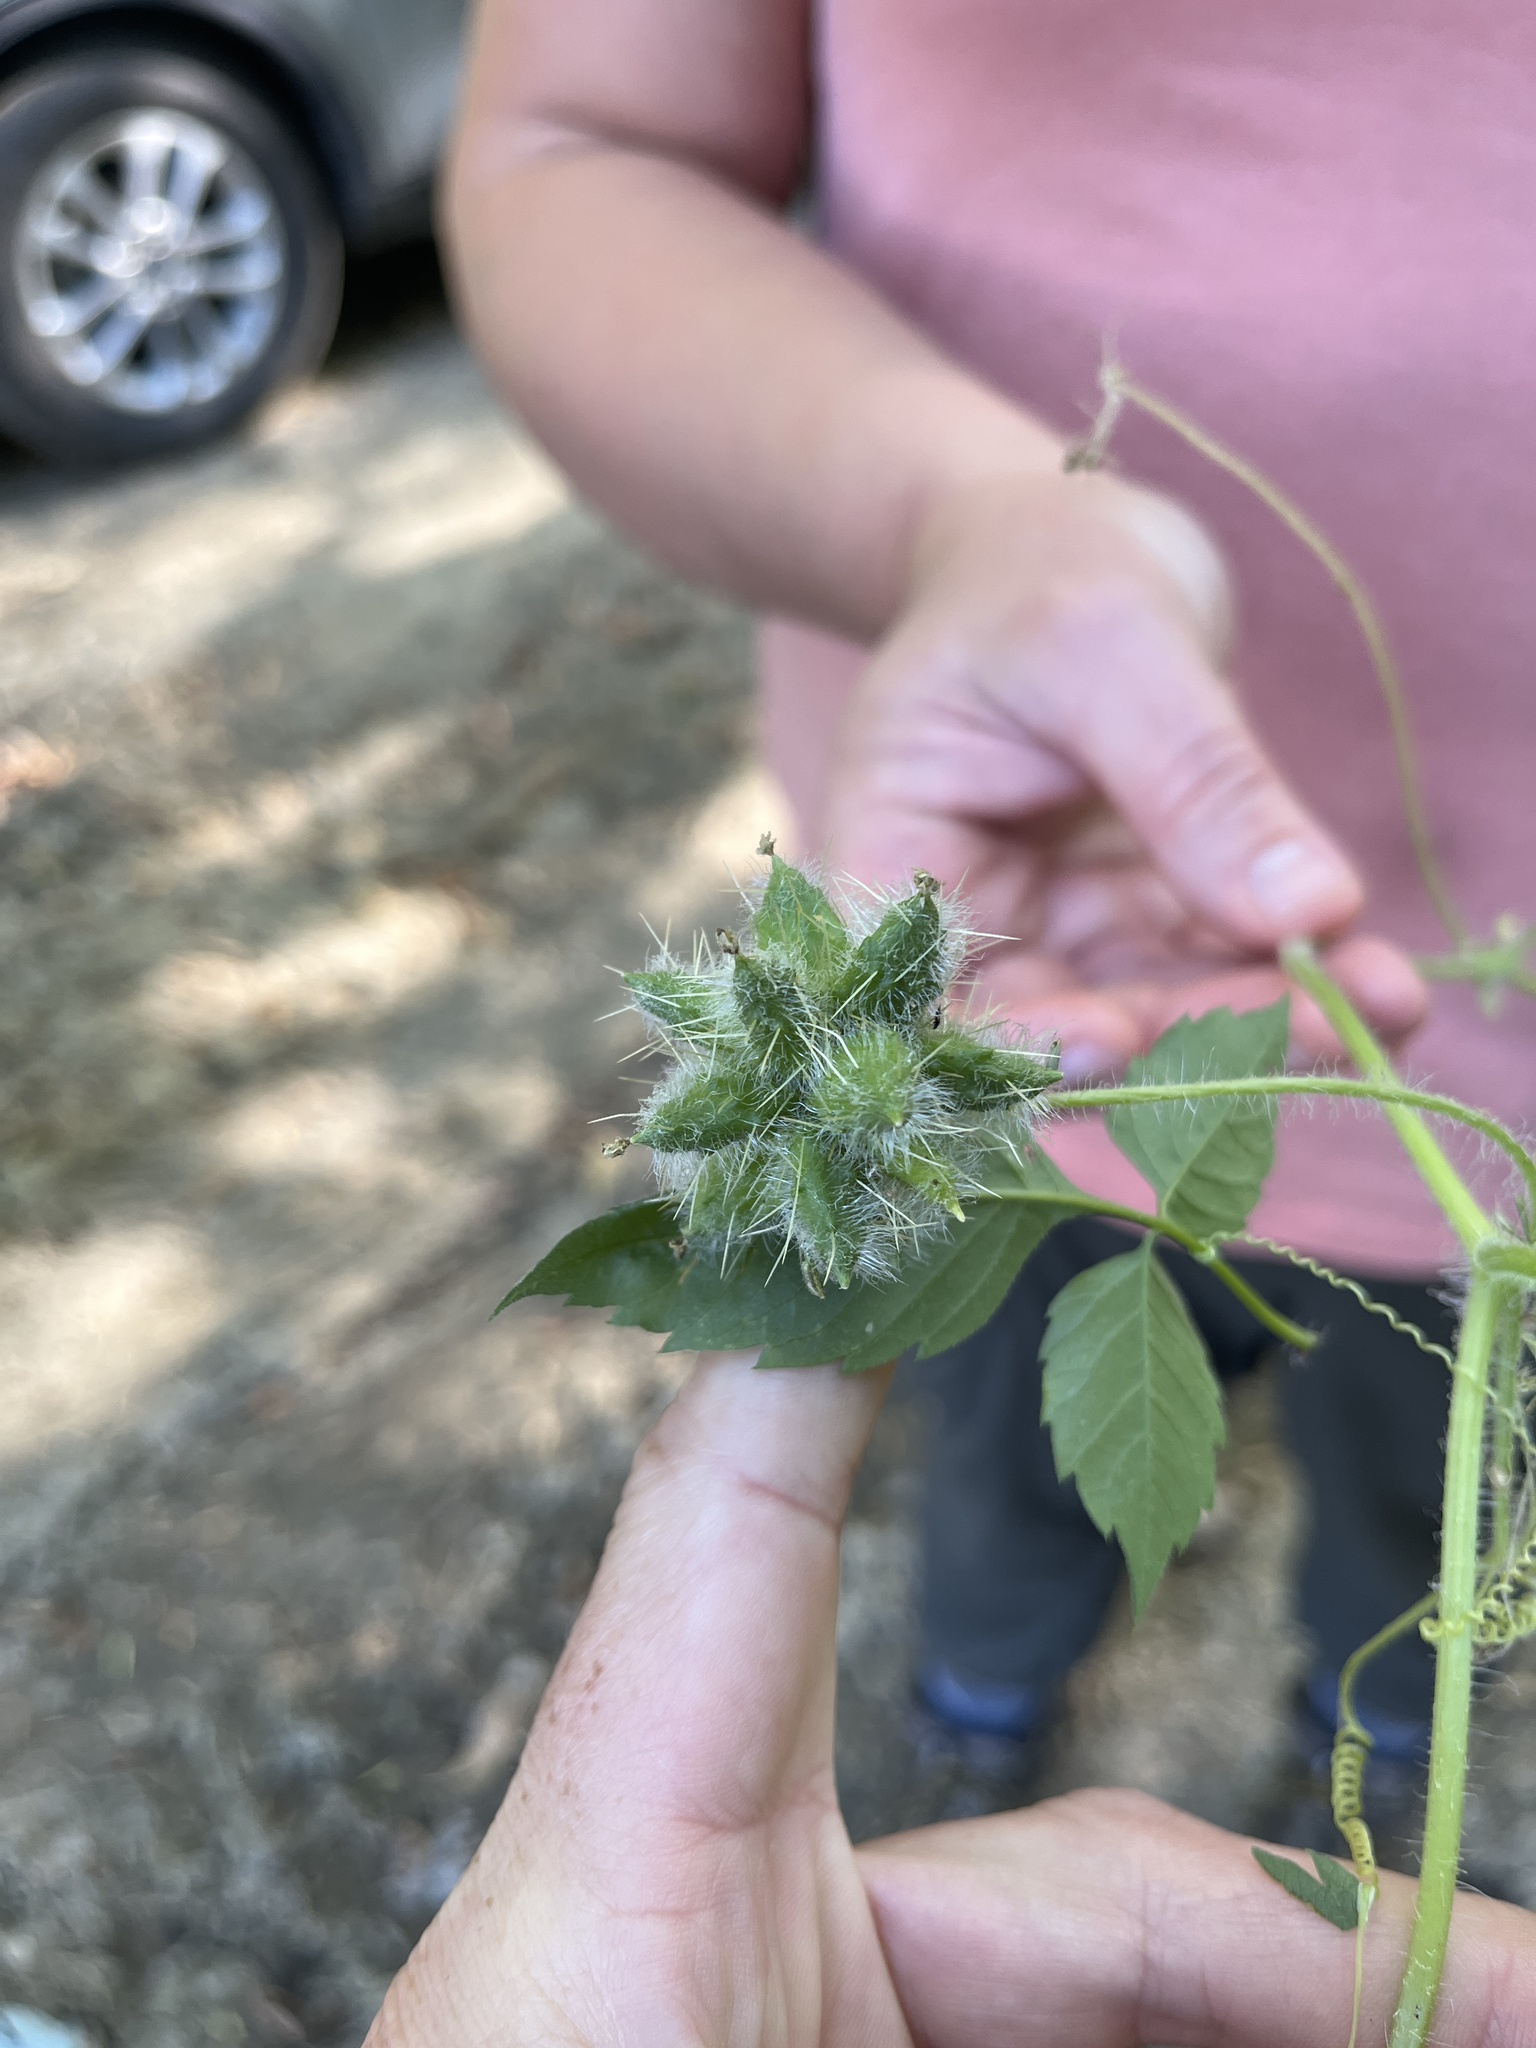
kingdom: Plantae
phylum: Tracheophyta
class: Magnoliopsida
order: Cucurbitales
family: Cucurbitaceae
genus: Sicyos
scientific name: Sicyos angulatus
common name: Angled burr cucumber
